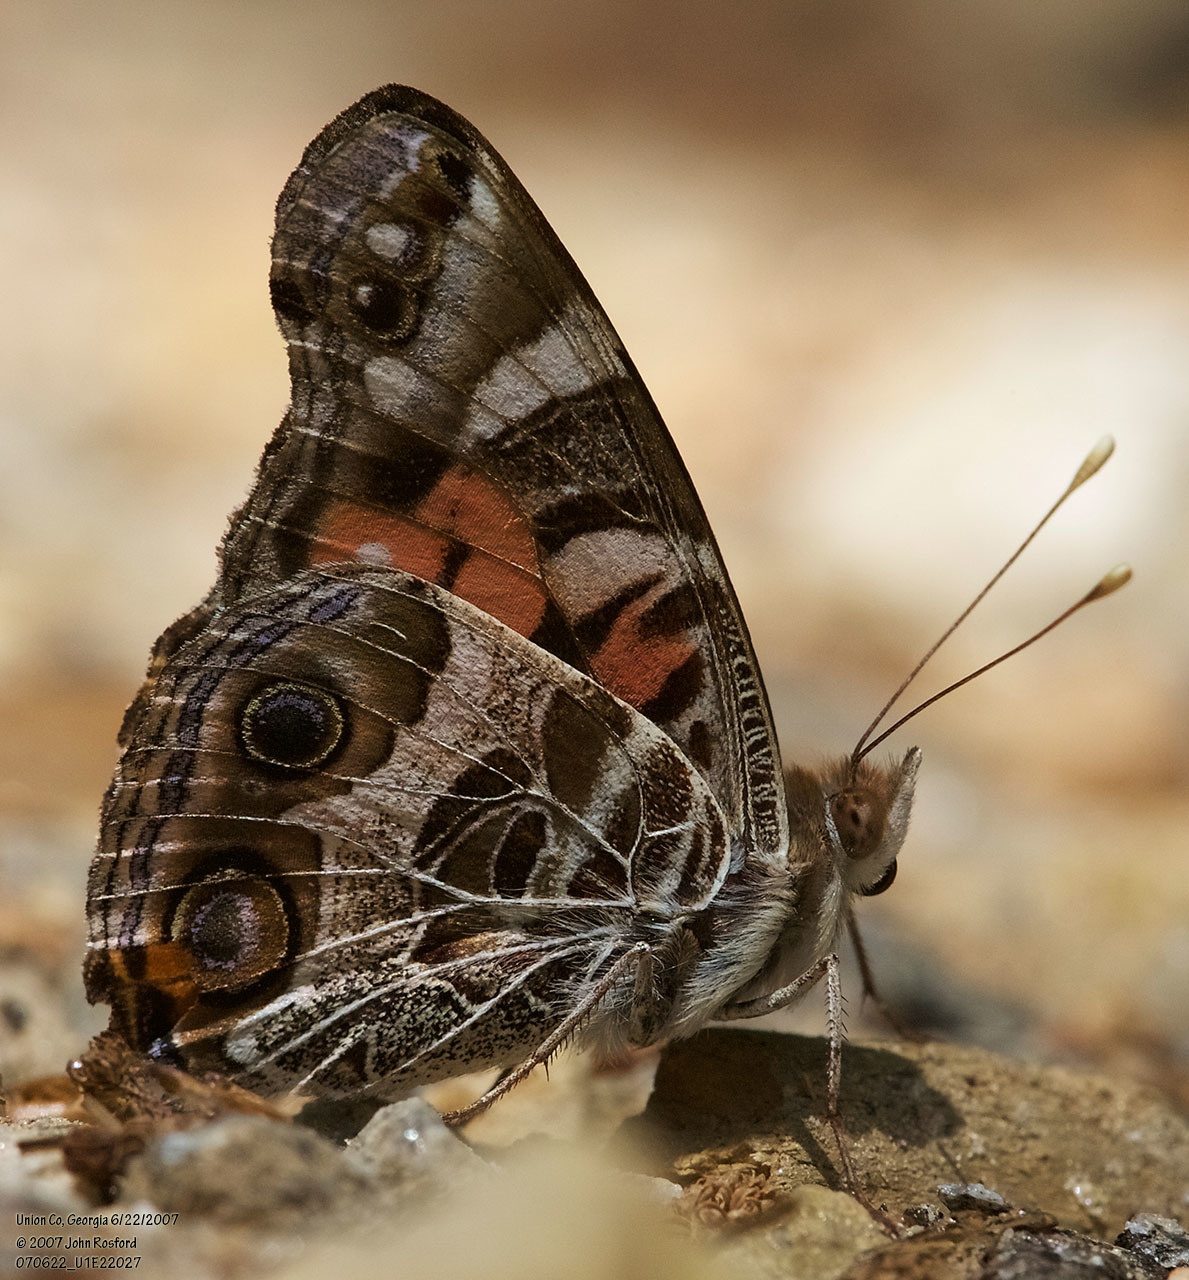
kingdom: Animalia
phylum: Arthropoda
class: Insecta
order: Lepidoptera
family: Nymphalidae
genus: Vanessa
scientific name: Vanessa virginiensis
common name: American lady
